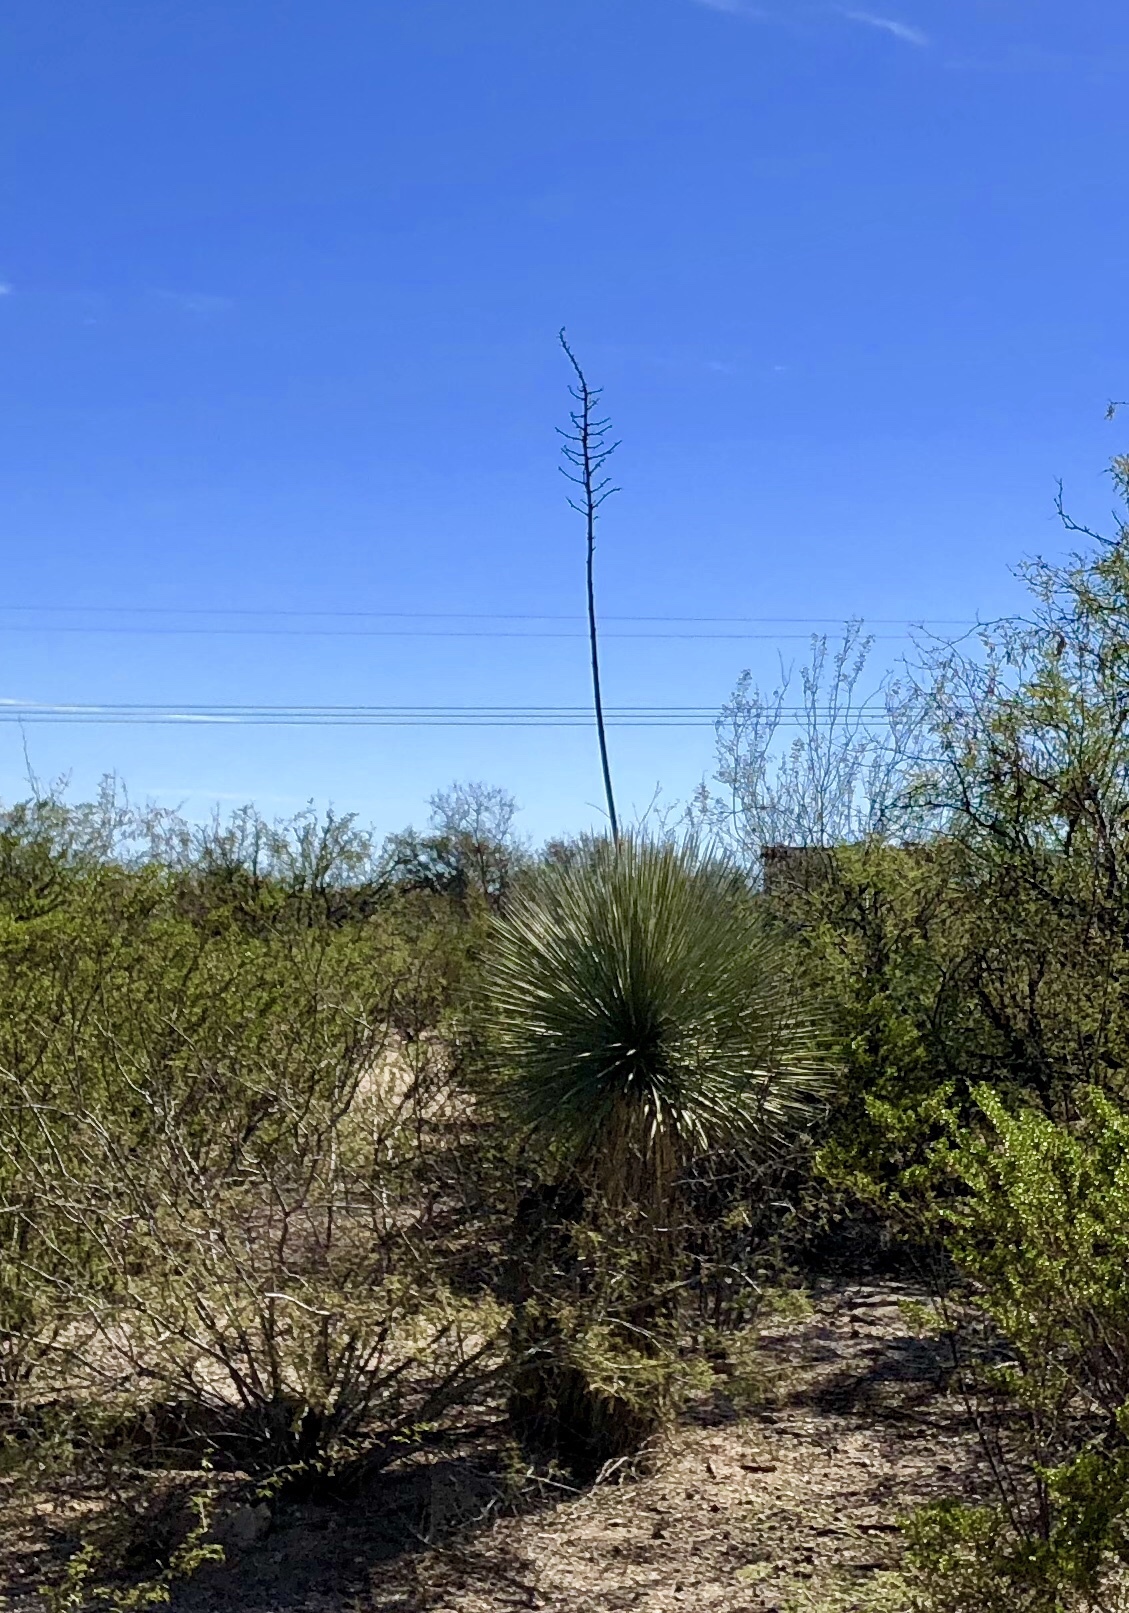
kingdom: Plantae
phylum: Tracheophyta
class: Liliopsida
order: Asparagales
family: Asparagaceae
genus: Yucca
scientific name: Yucca elata
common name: Palmella
